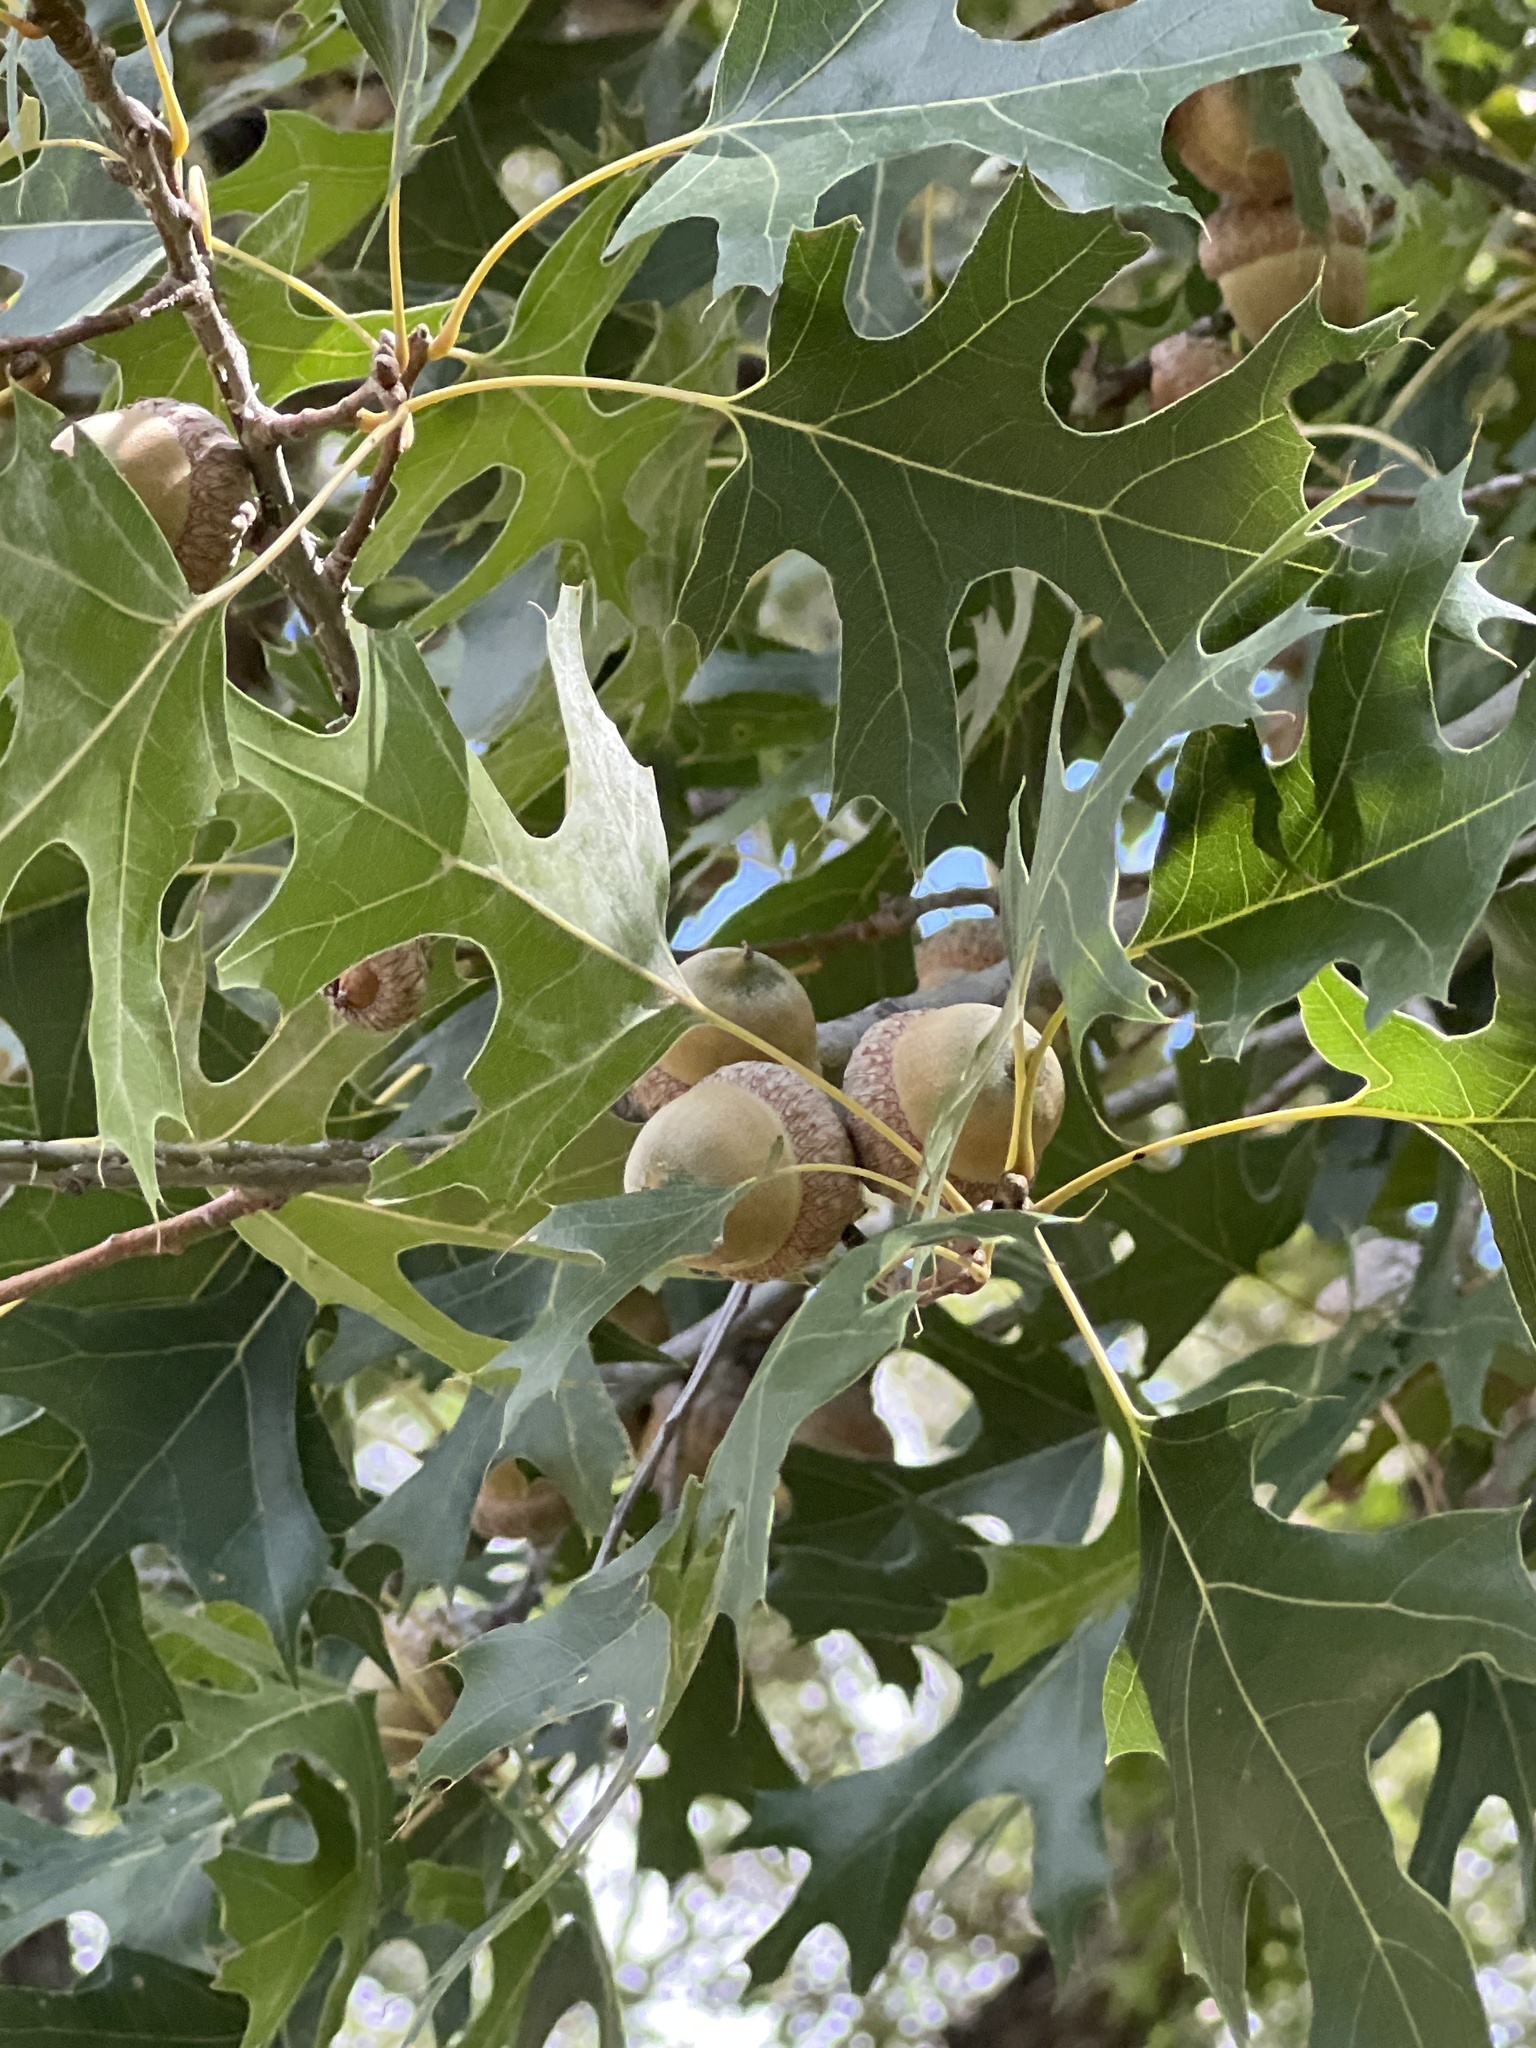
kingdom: Plantae
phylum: Tracheophyta
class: Magnoliopsida
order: Fagales
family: Fagaceae
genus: Quercus
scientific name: Quercus buckleyi
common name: Buckley oak
